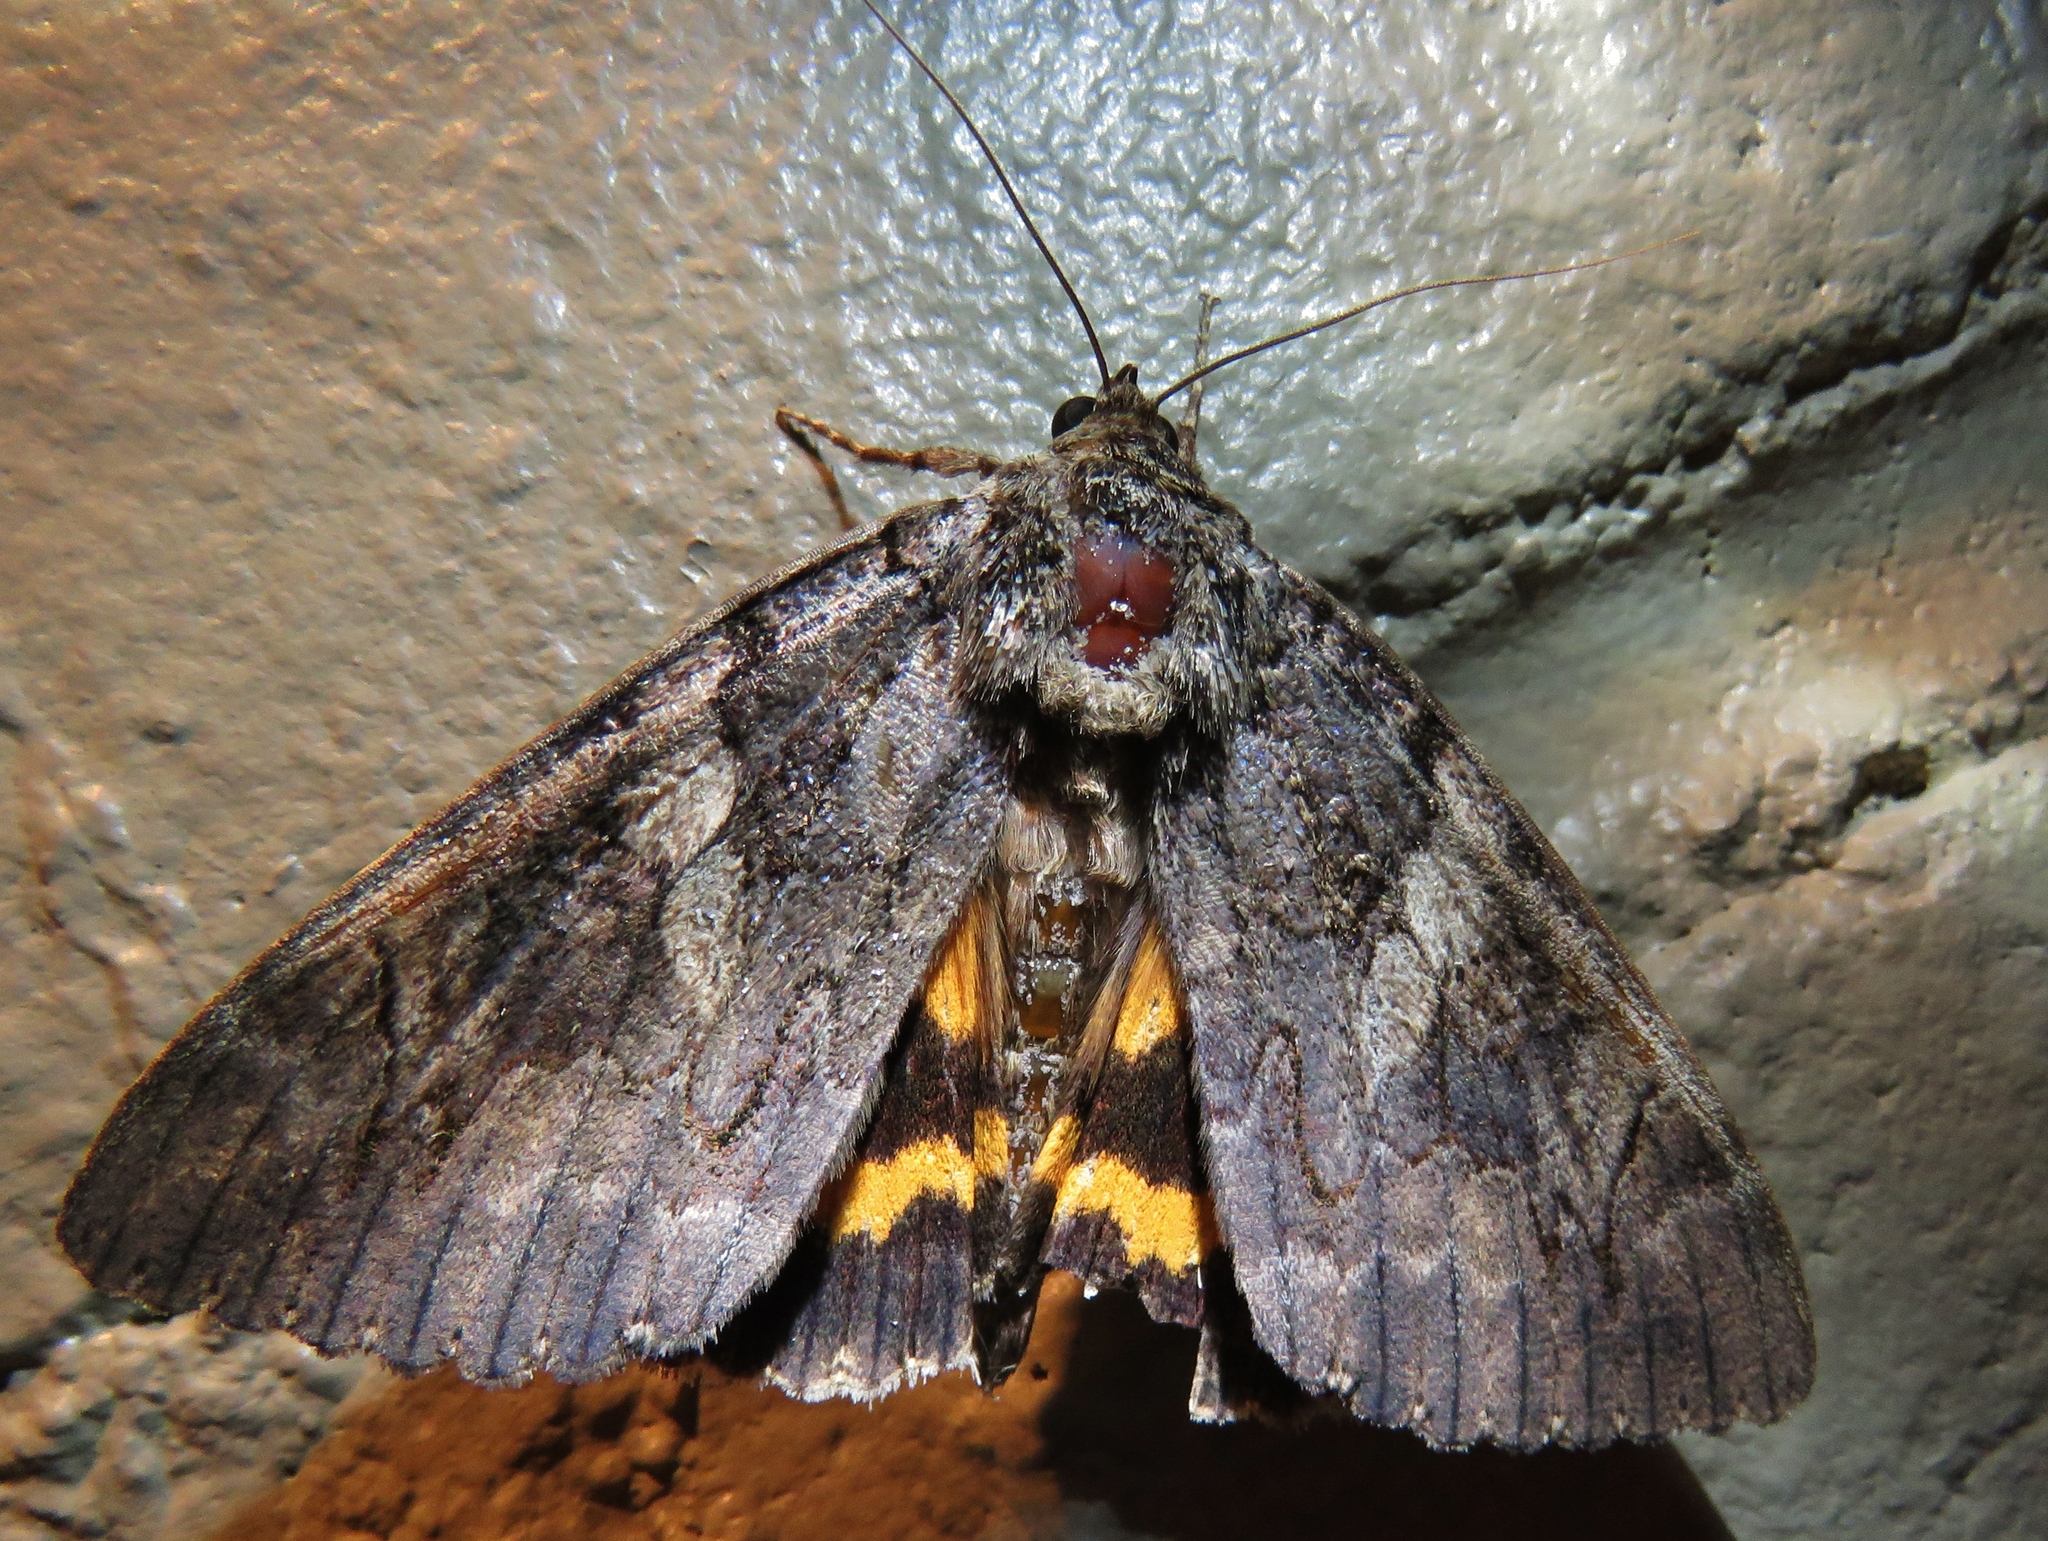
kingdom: Animalia
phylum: Arthropoda
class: Insecta
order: Lepidoptera
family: Erebidae
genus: Catocala
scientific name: Catocala piatrix
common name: The penitent underwing
